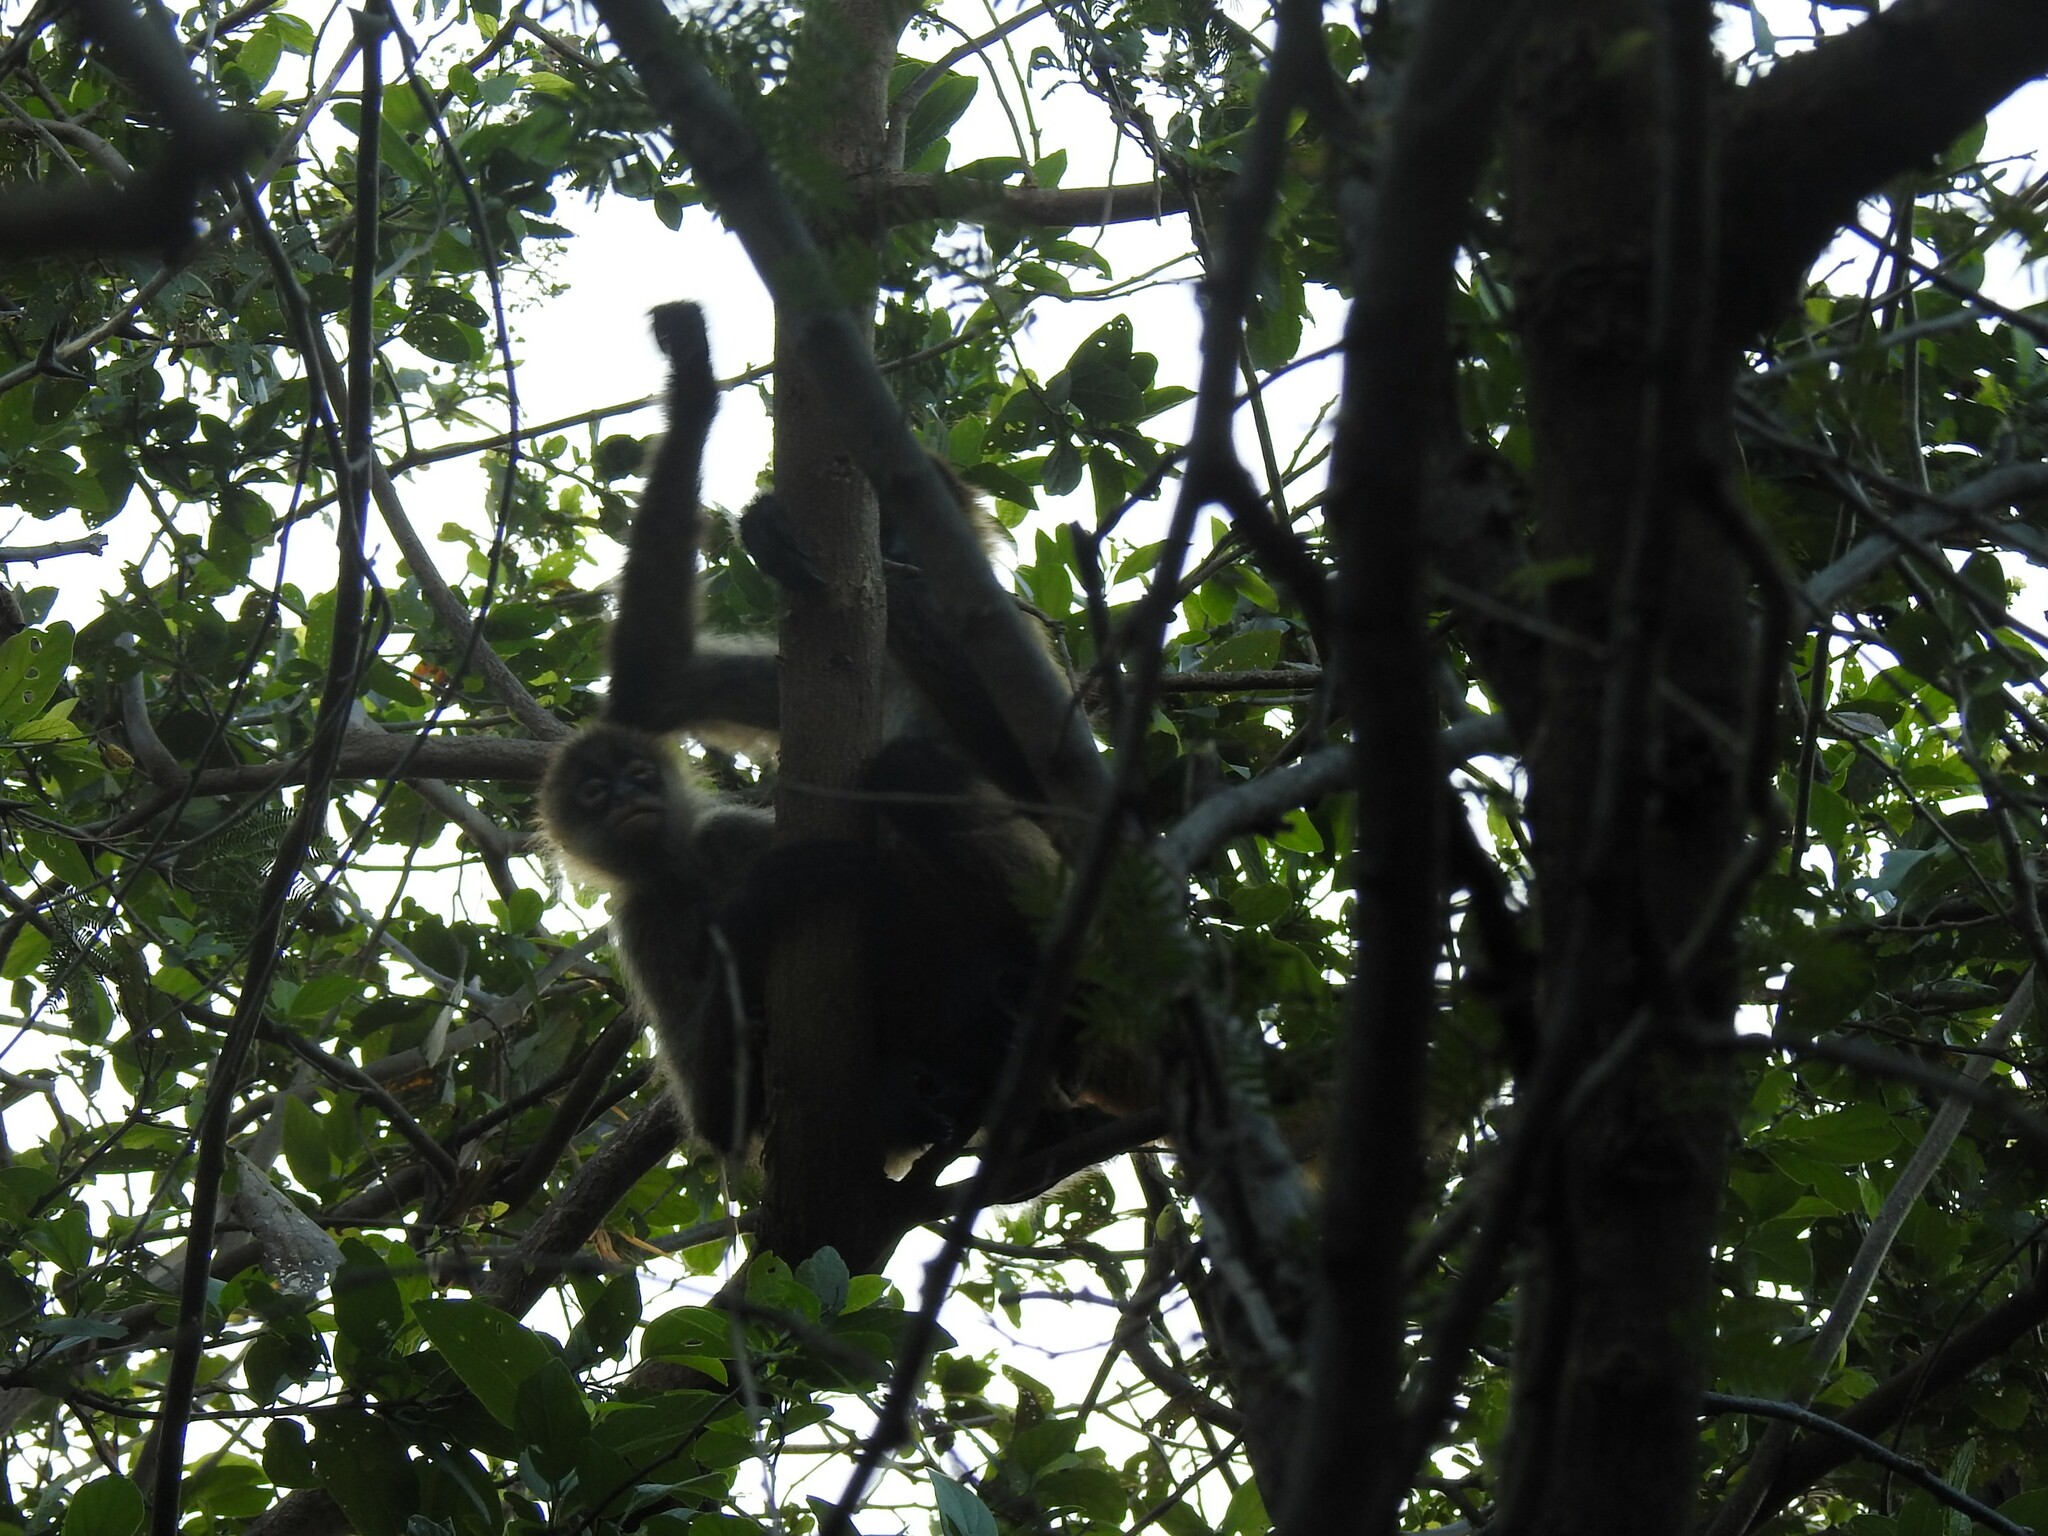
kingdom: Animalia
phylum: Chordata
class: Mammalia
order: Primates
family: Atelidae
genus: Ateles
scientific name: Ateles geoffroyi
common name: Black-handed spider monkey
